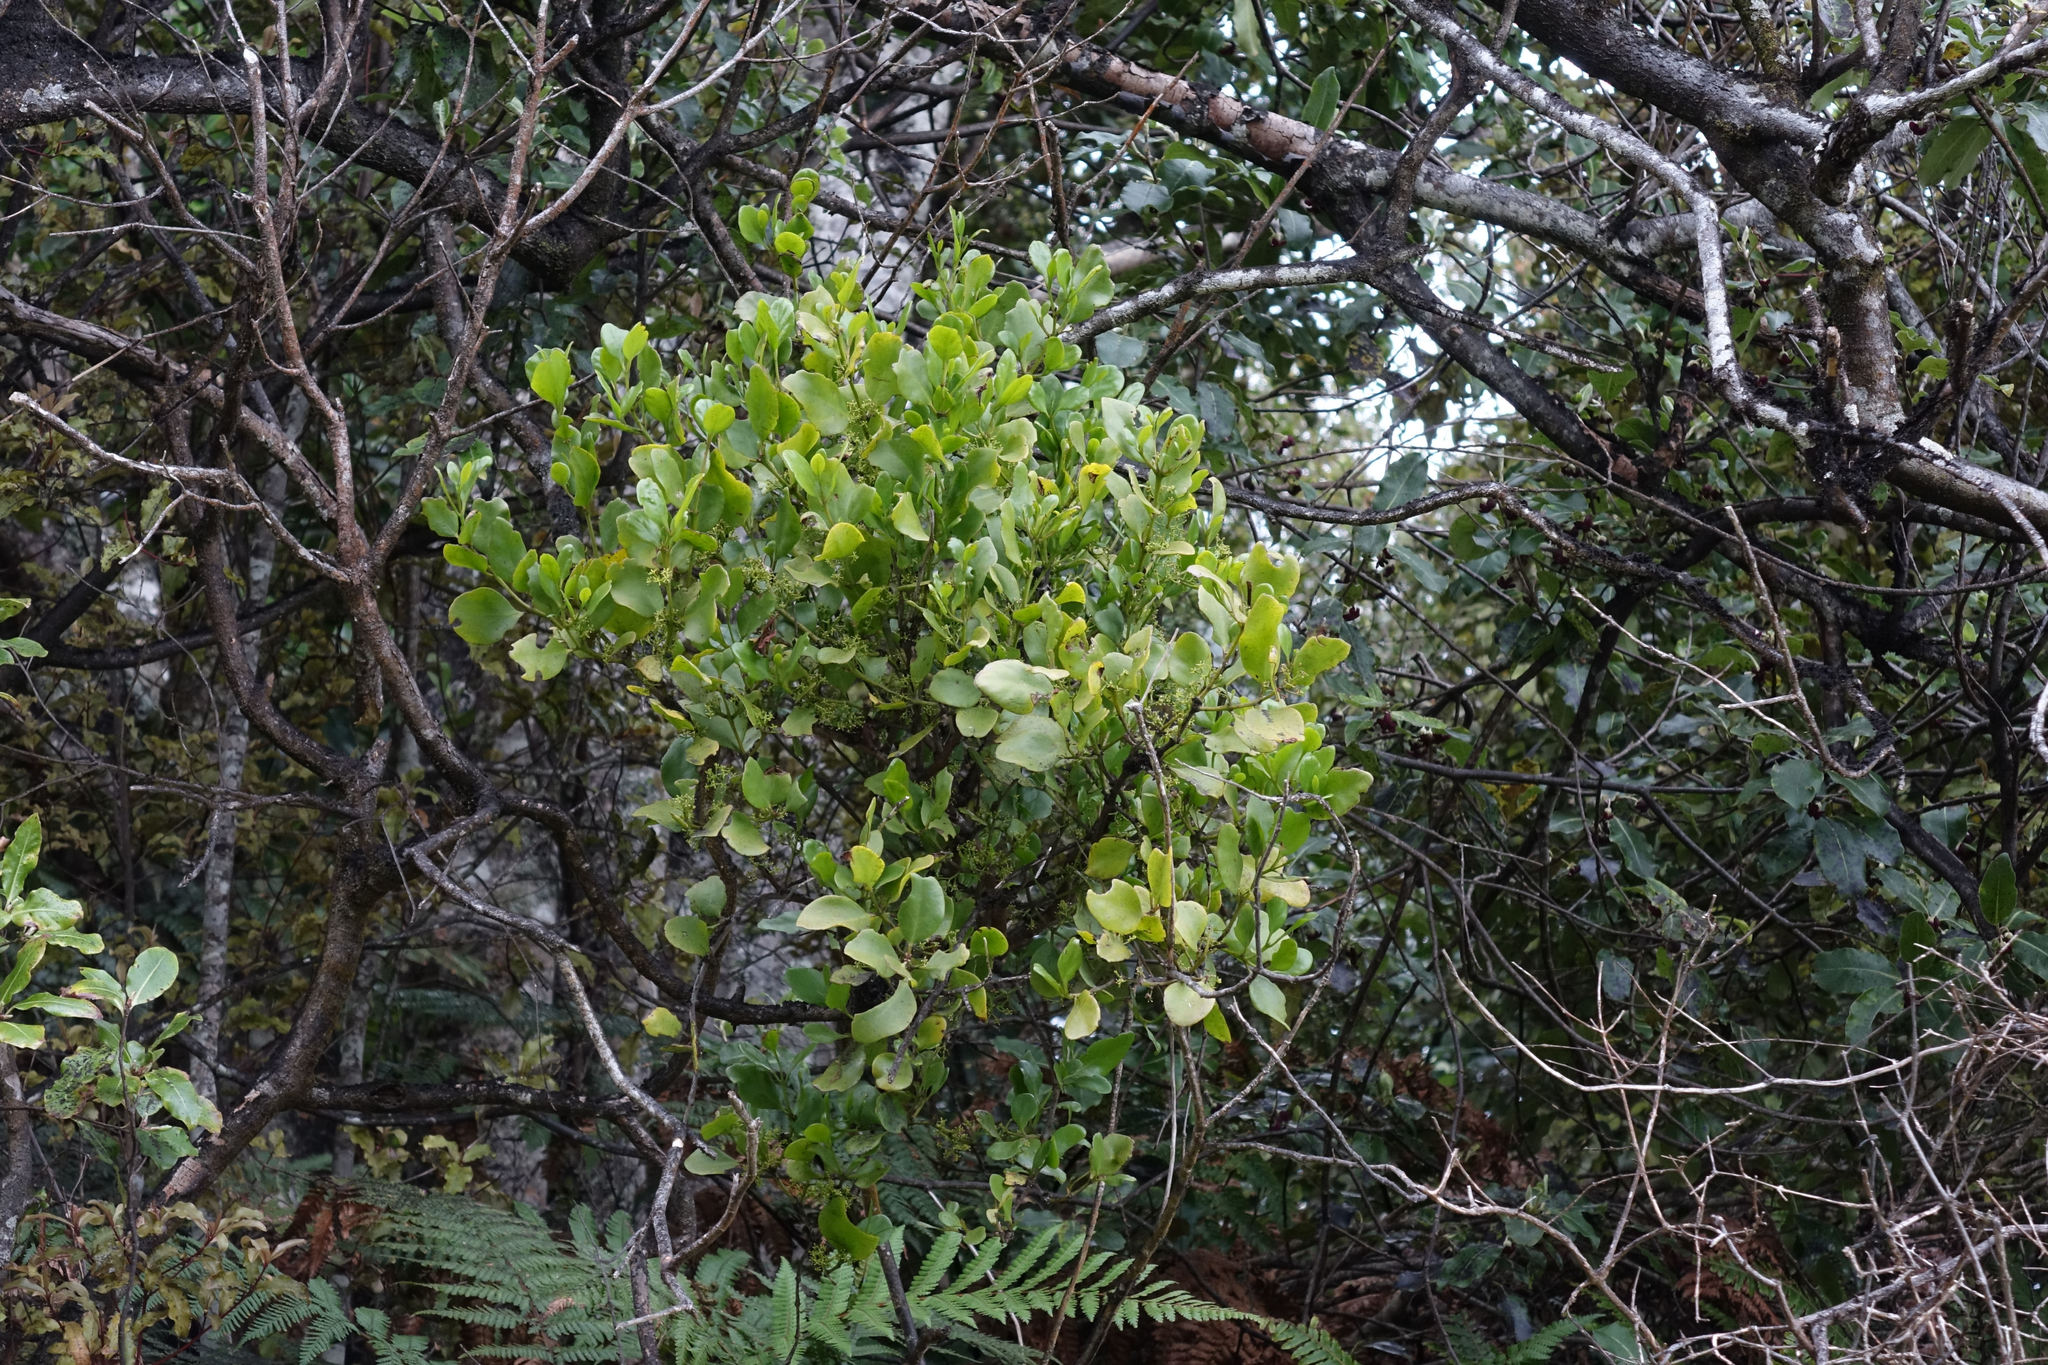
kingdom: Plantae
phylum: Tracheophyta
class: Magnoliopsida
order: Santalales
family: Loranthaceae
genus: Ileostylus
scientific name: Ileostylus micranthus
